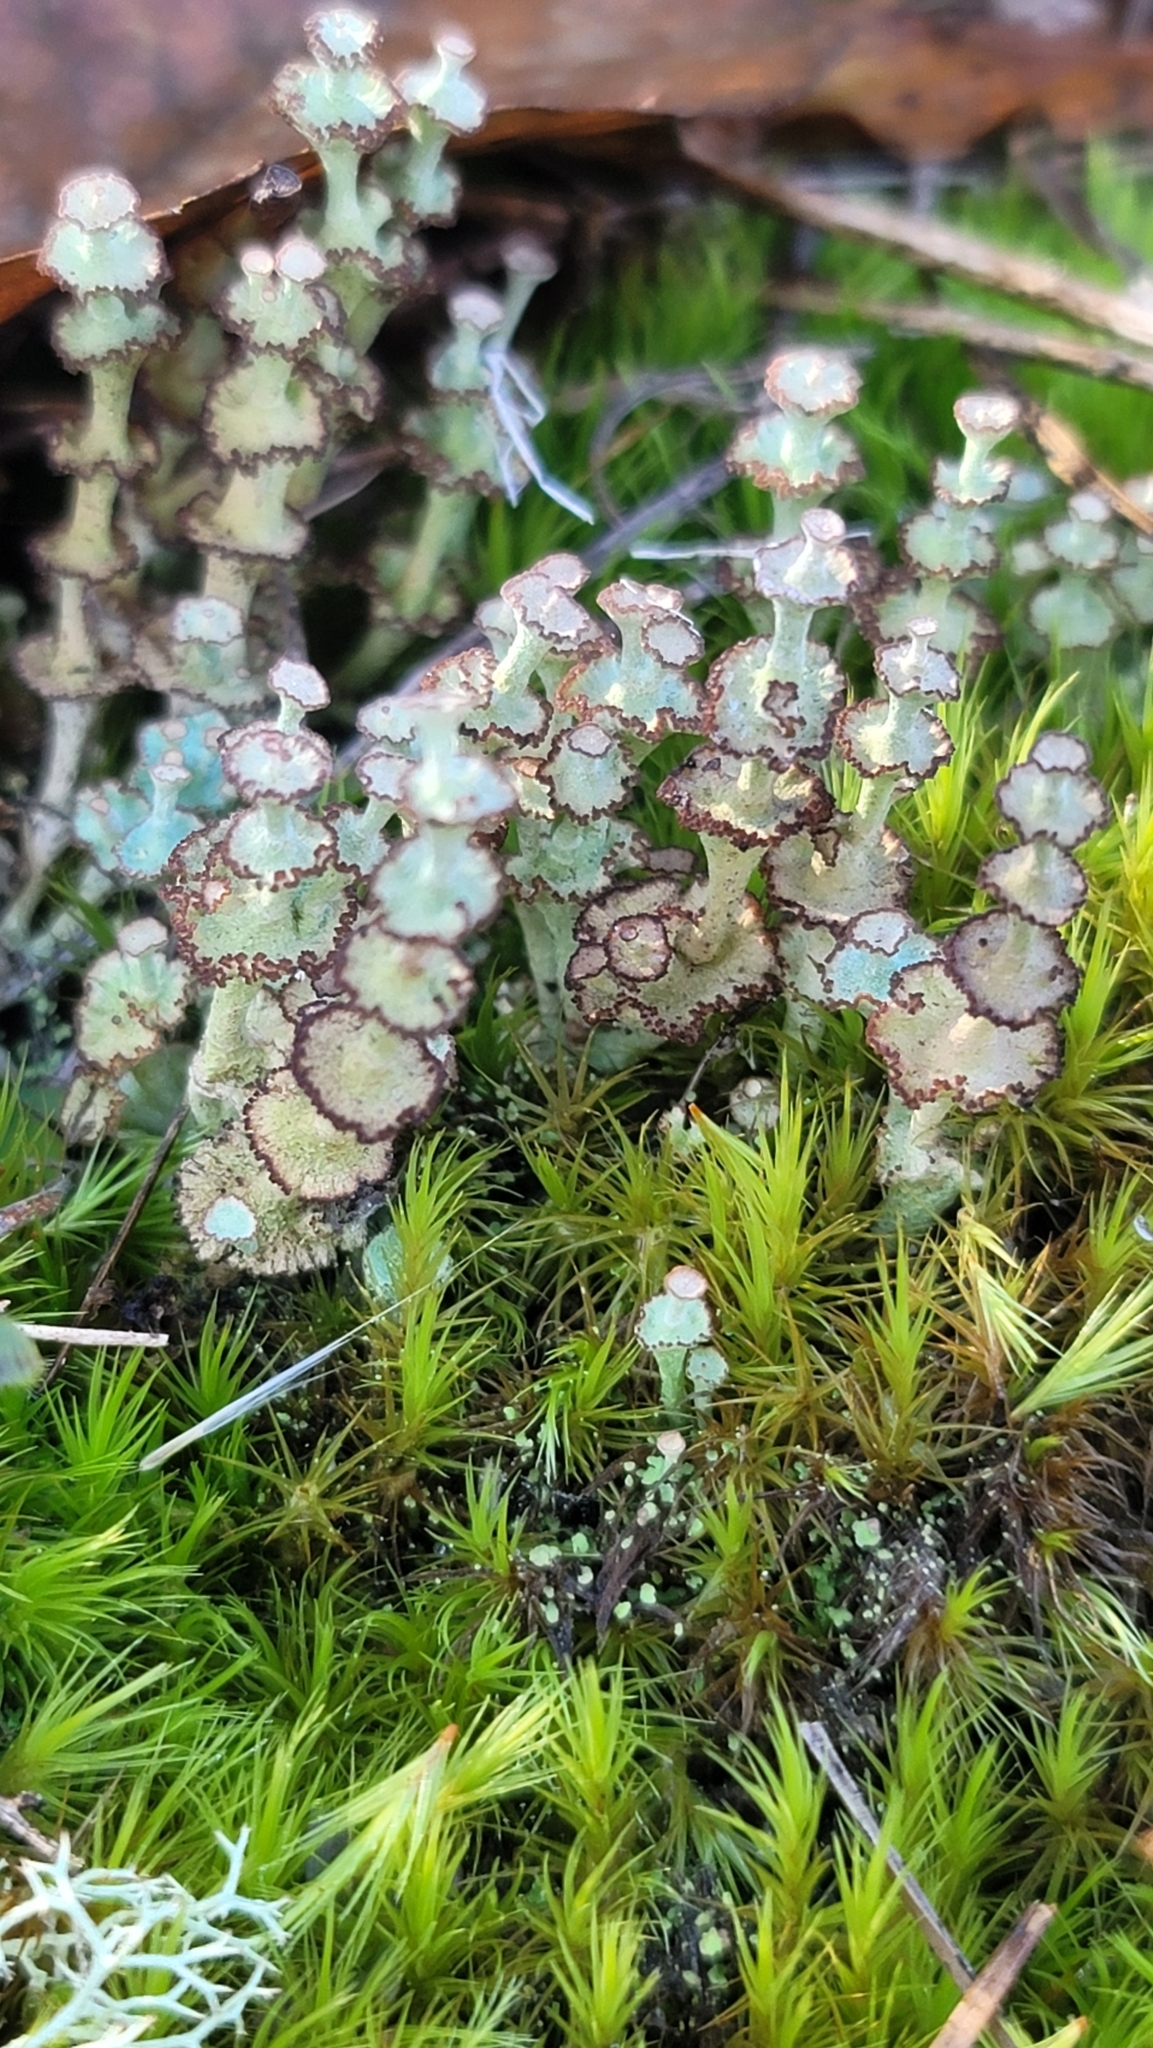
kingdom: Fungi
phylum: Ascomycota
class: Lecanoromycetes
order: Lecanorales
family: Cladoniaceae
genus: Cladonia
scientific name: Cladonia cervicornis
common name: Browned pixie-cup lichen
